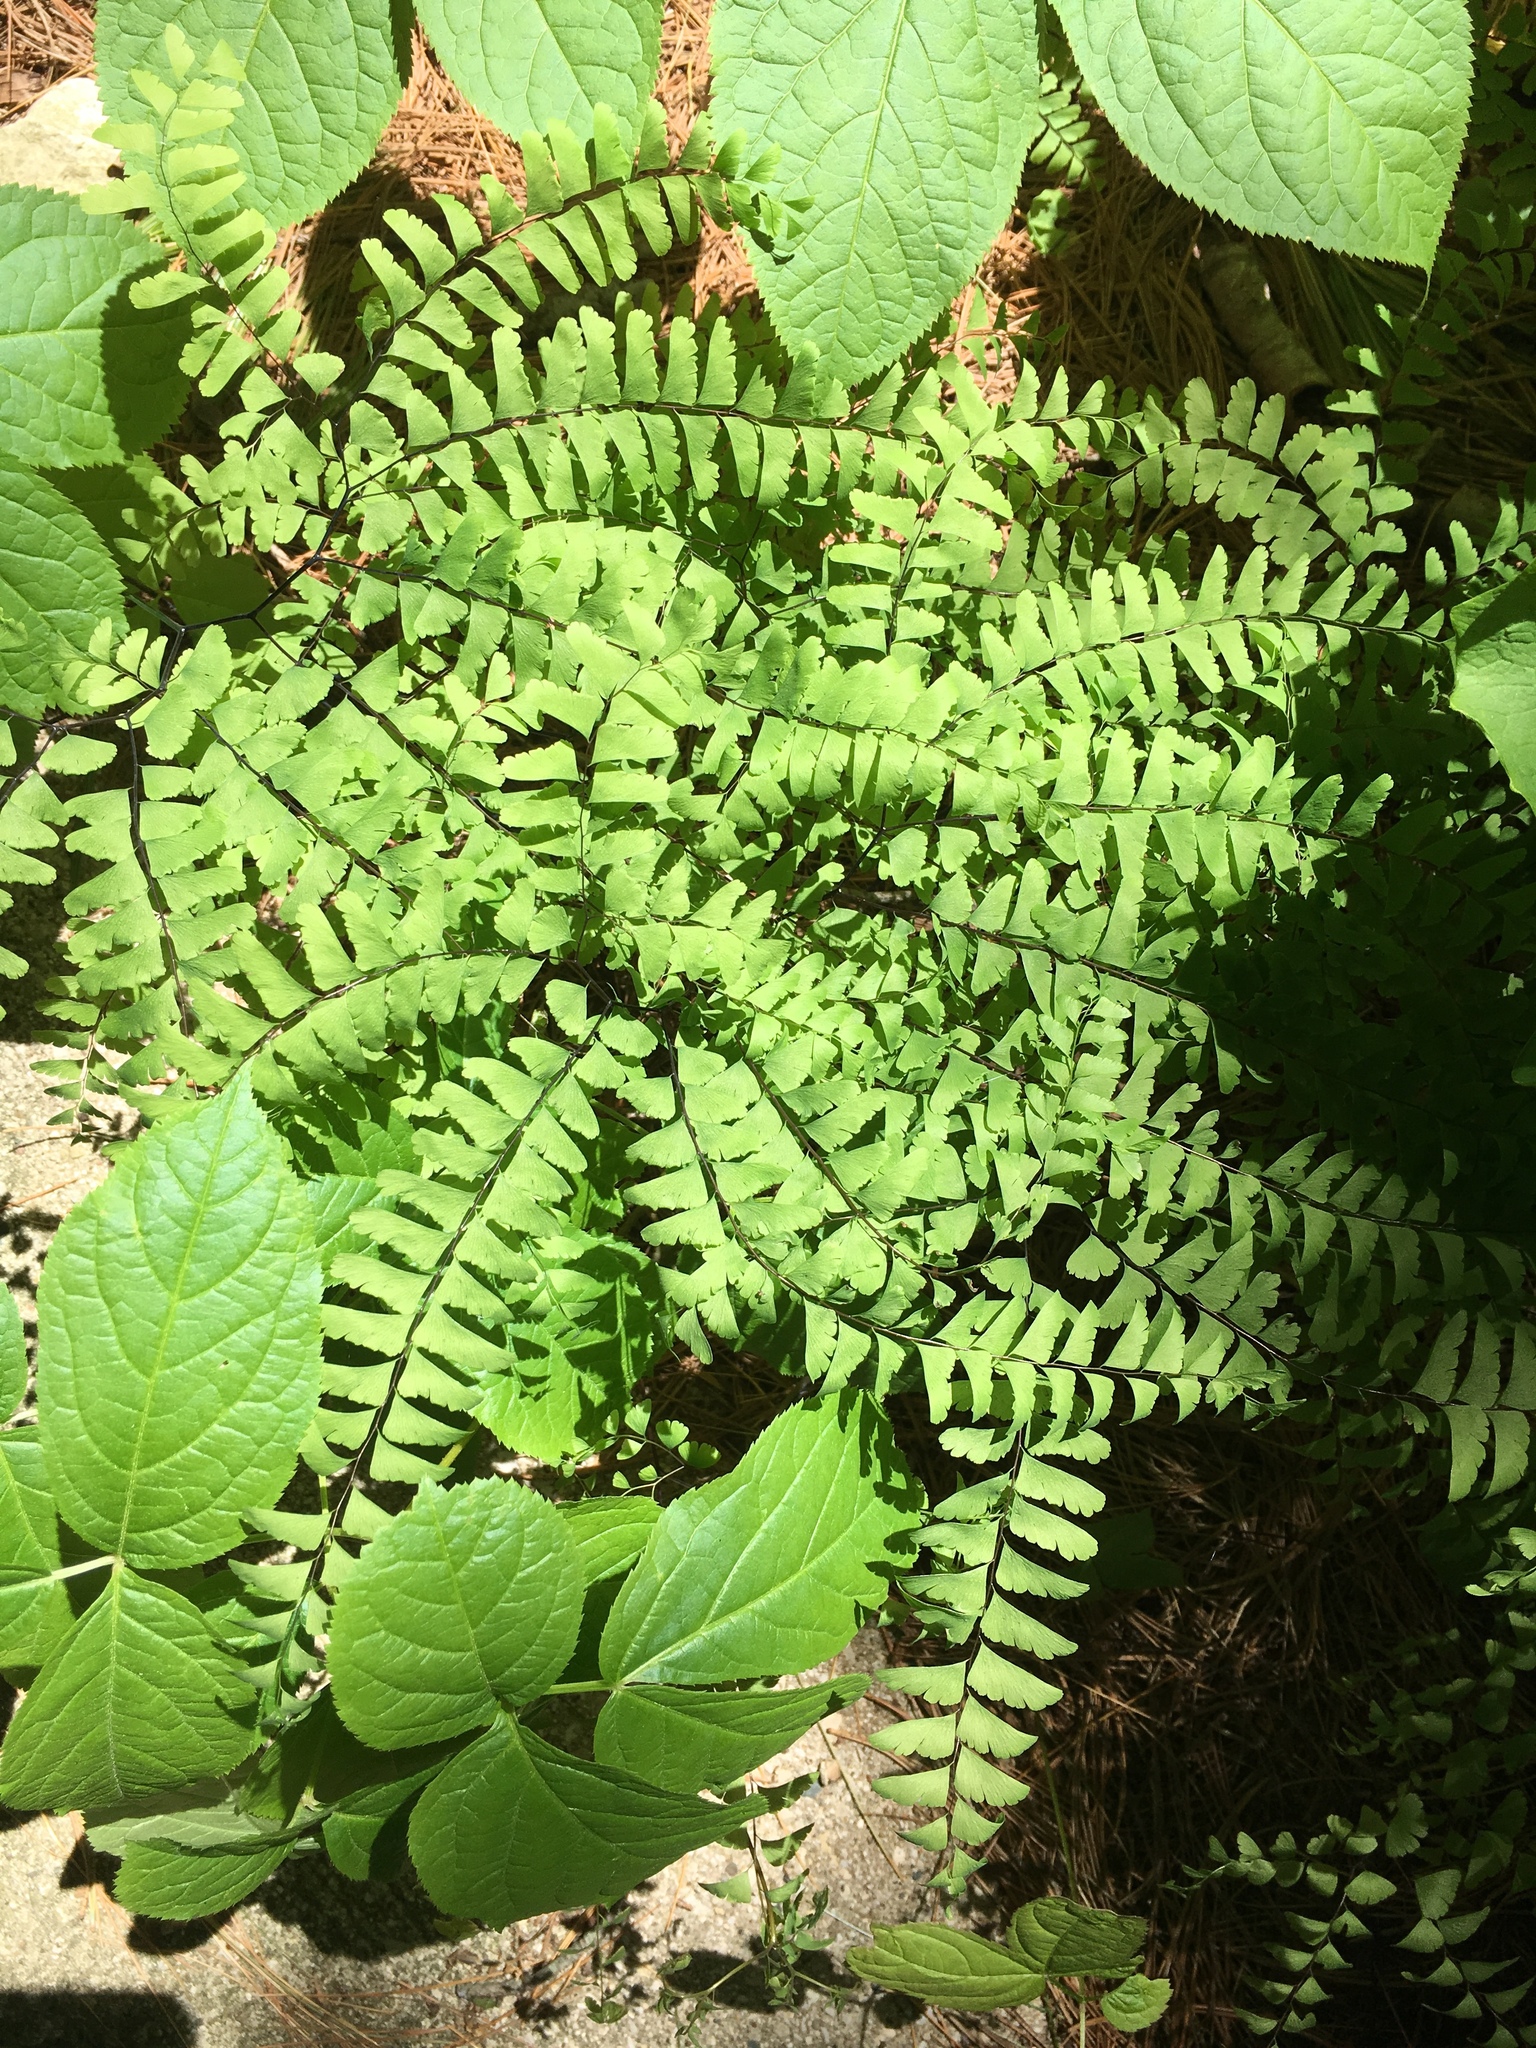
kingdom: Plantae
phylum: Tracheophyta
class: Polypodiopsida
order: Polypodiales
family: Pteridaceae
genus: Adiantum
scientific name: Adiantum pedatum
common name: Five-finger fern
